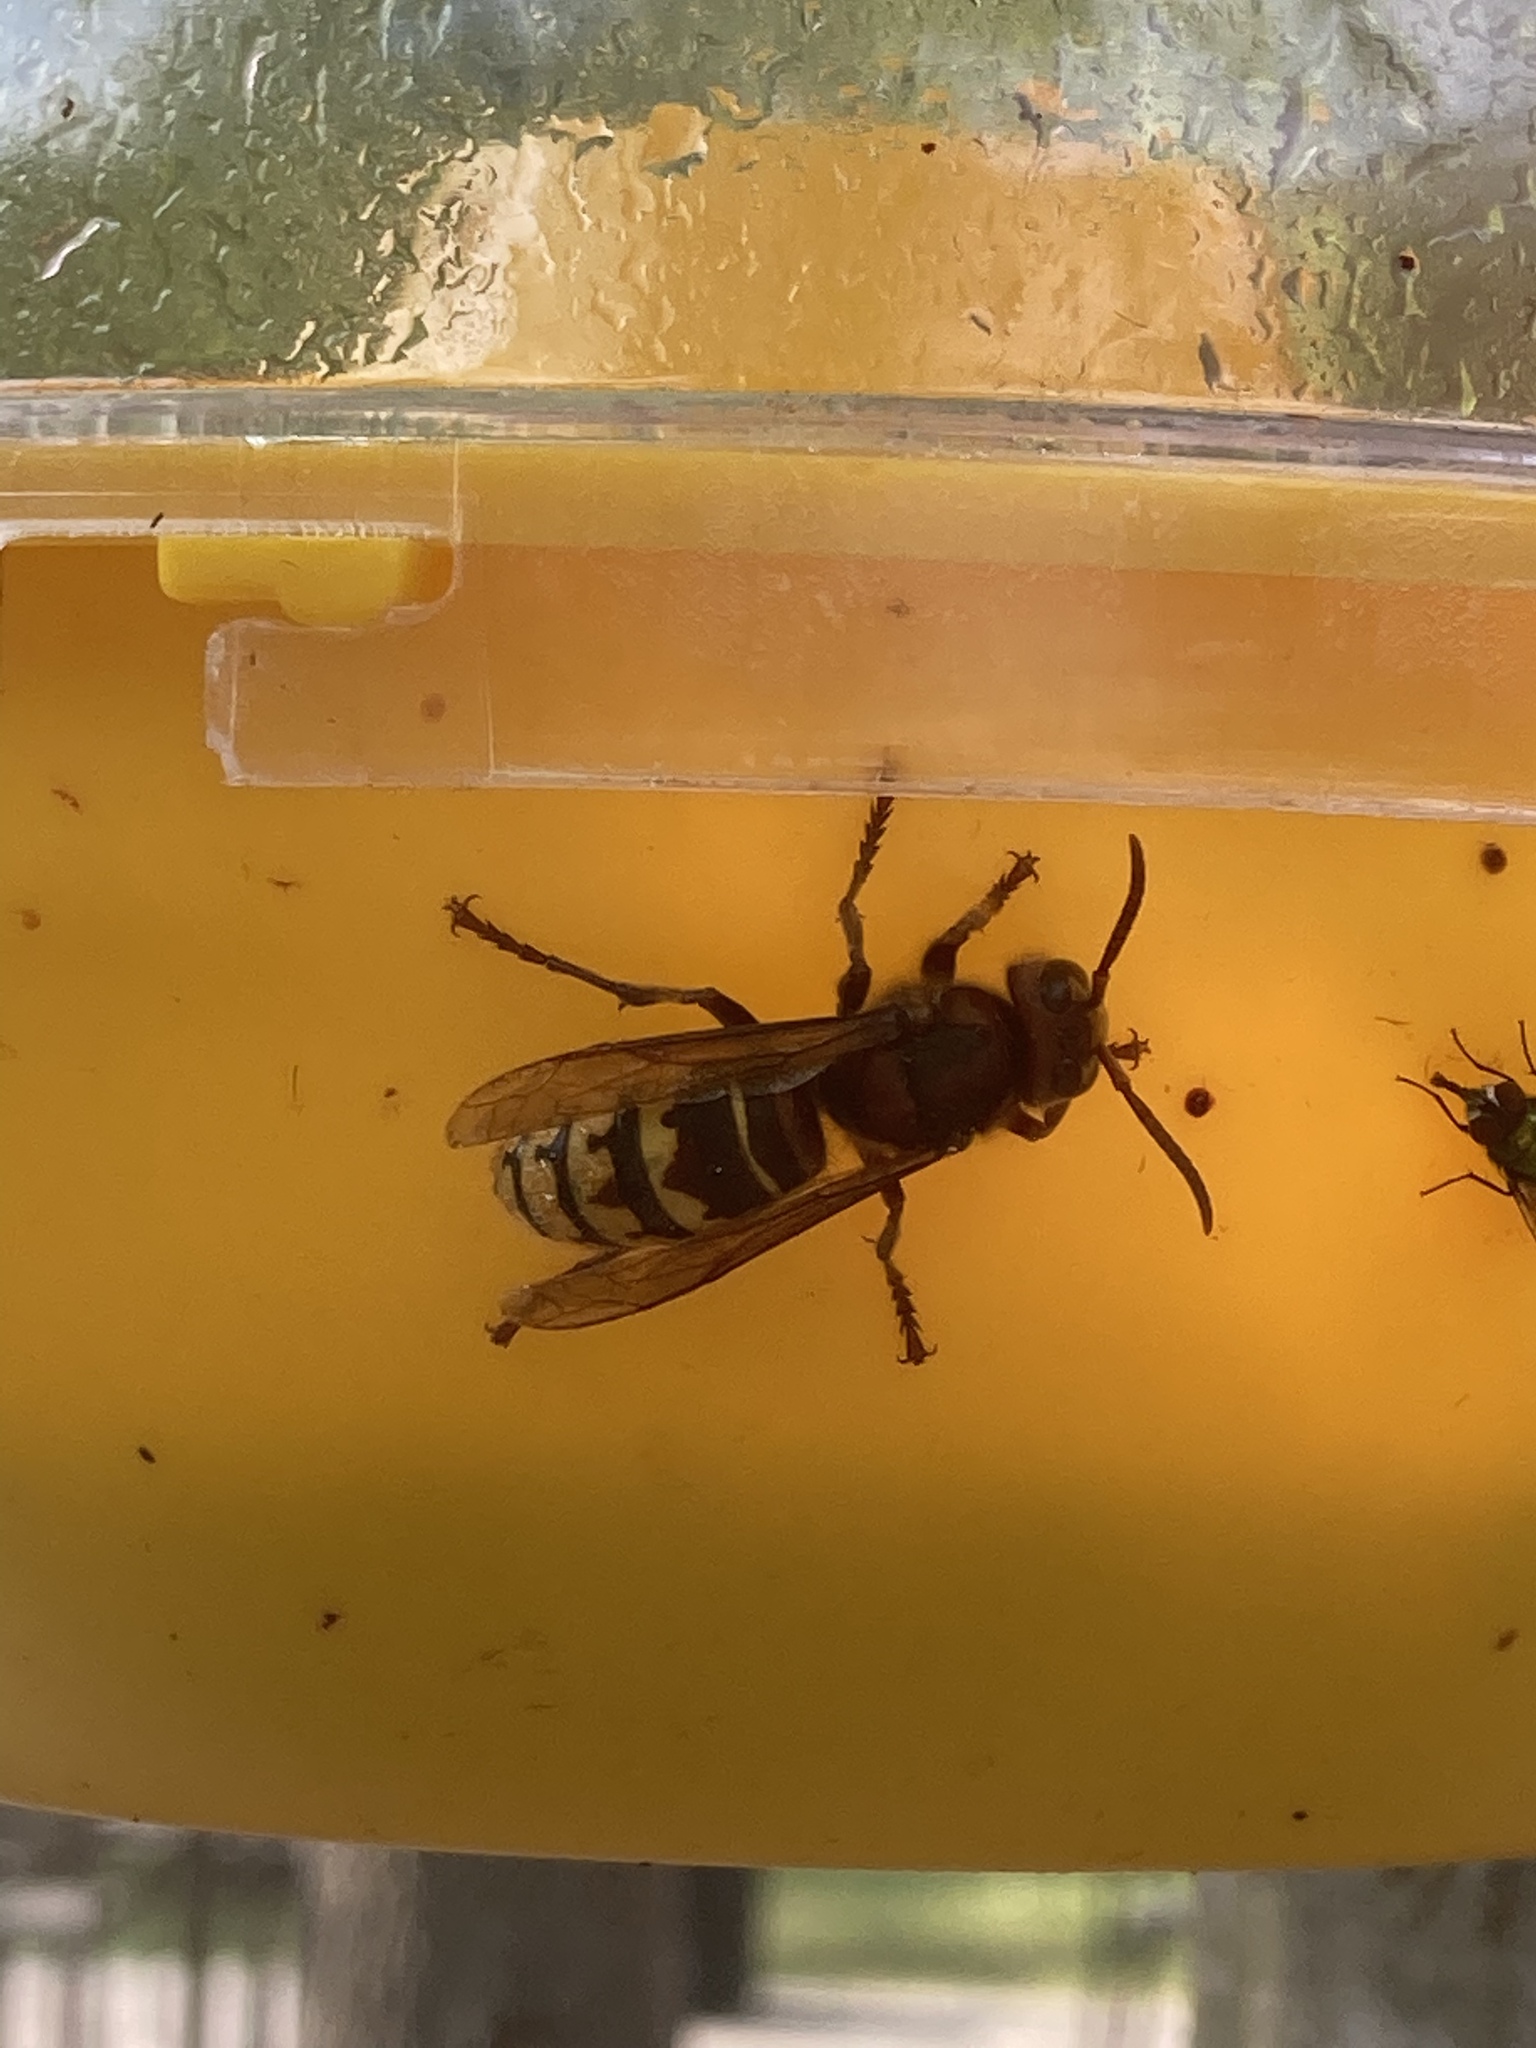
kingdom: Animalia
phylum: Arthropoda
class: Insecta
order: Hymenoptera
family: Vespidae
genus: Vespa
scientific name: Vespa crabro
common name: Hornet
